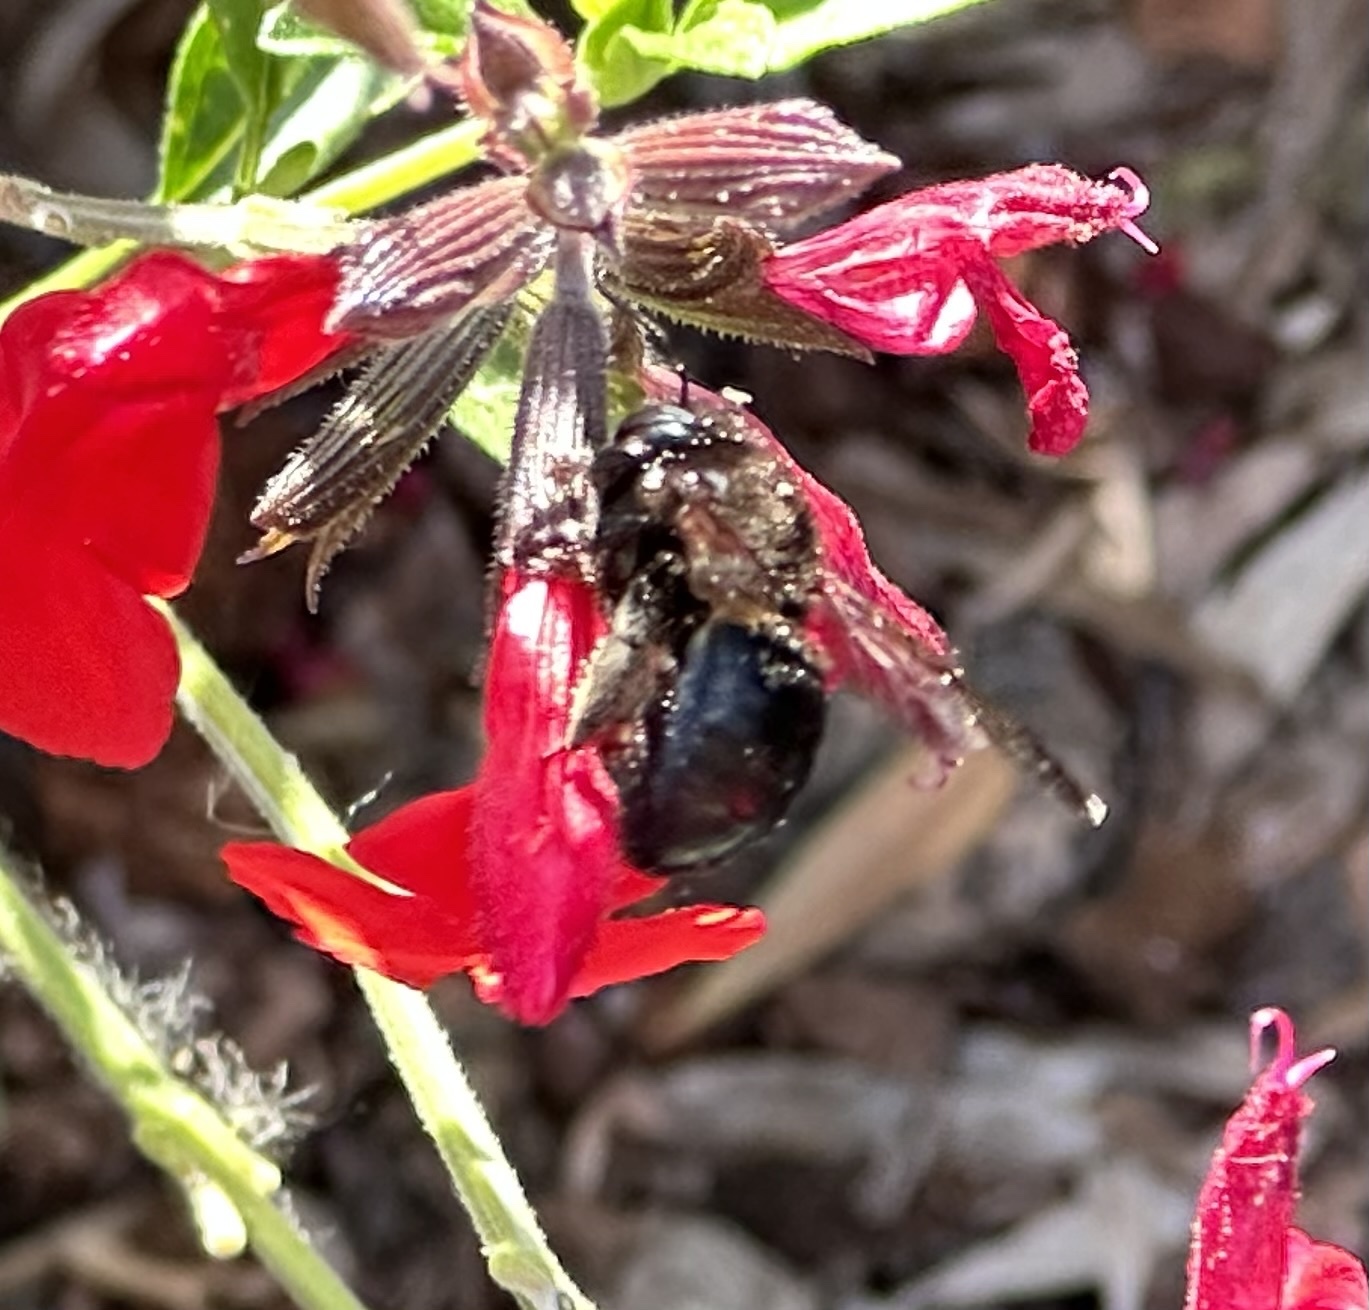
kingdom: Animalia
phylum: Arthropoda
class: Insecta
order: Hymenoptera
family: Apidae
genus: Xylocopa
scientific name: Xylocopa tabaniformis
